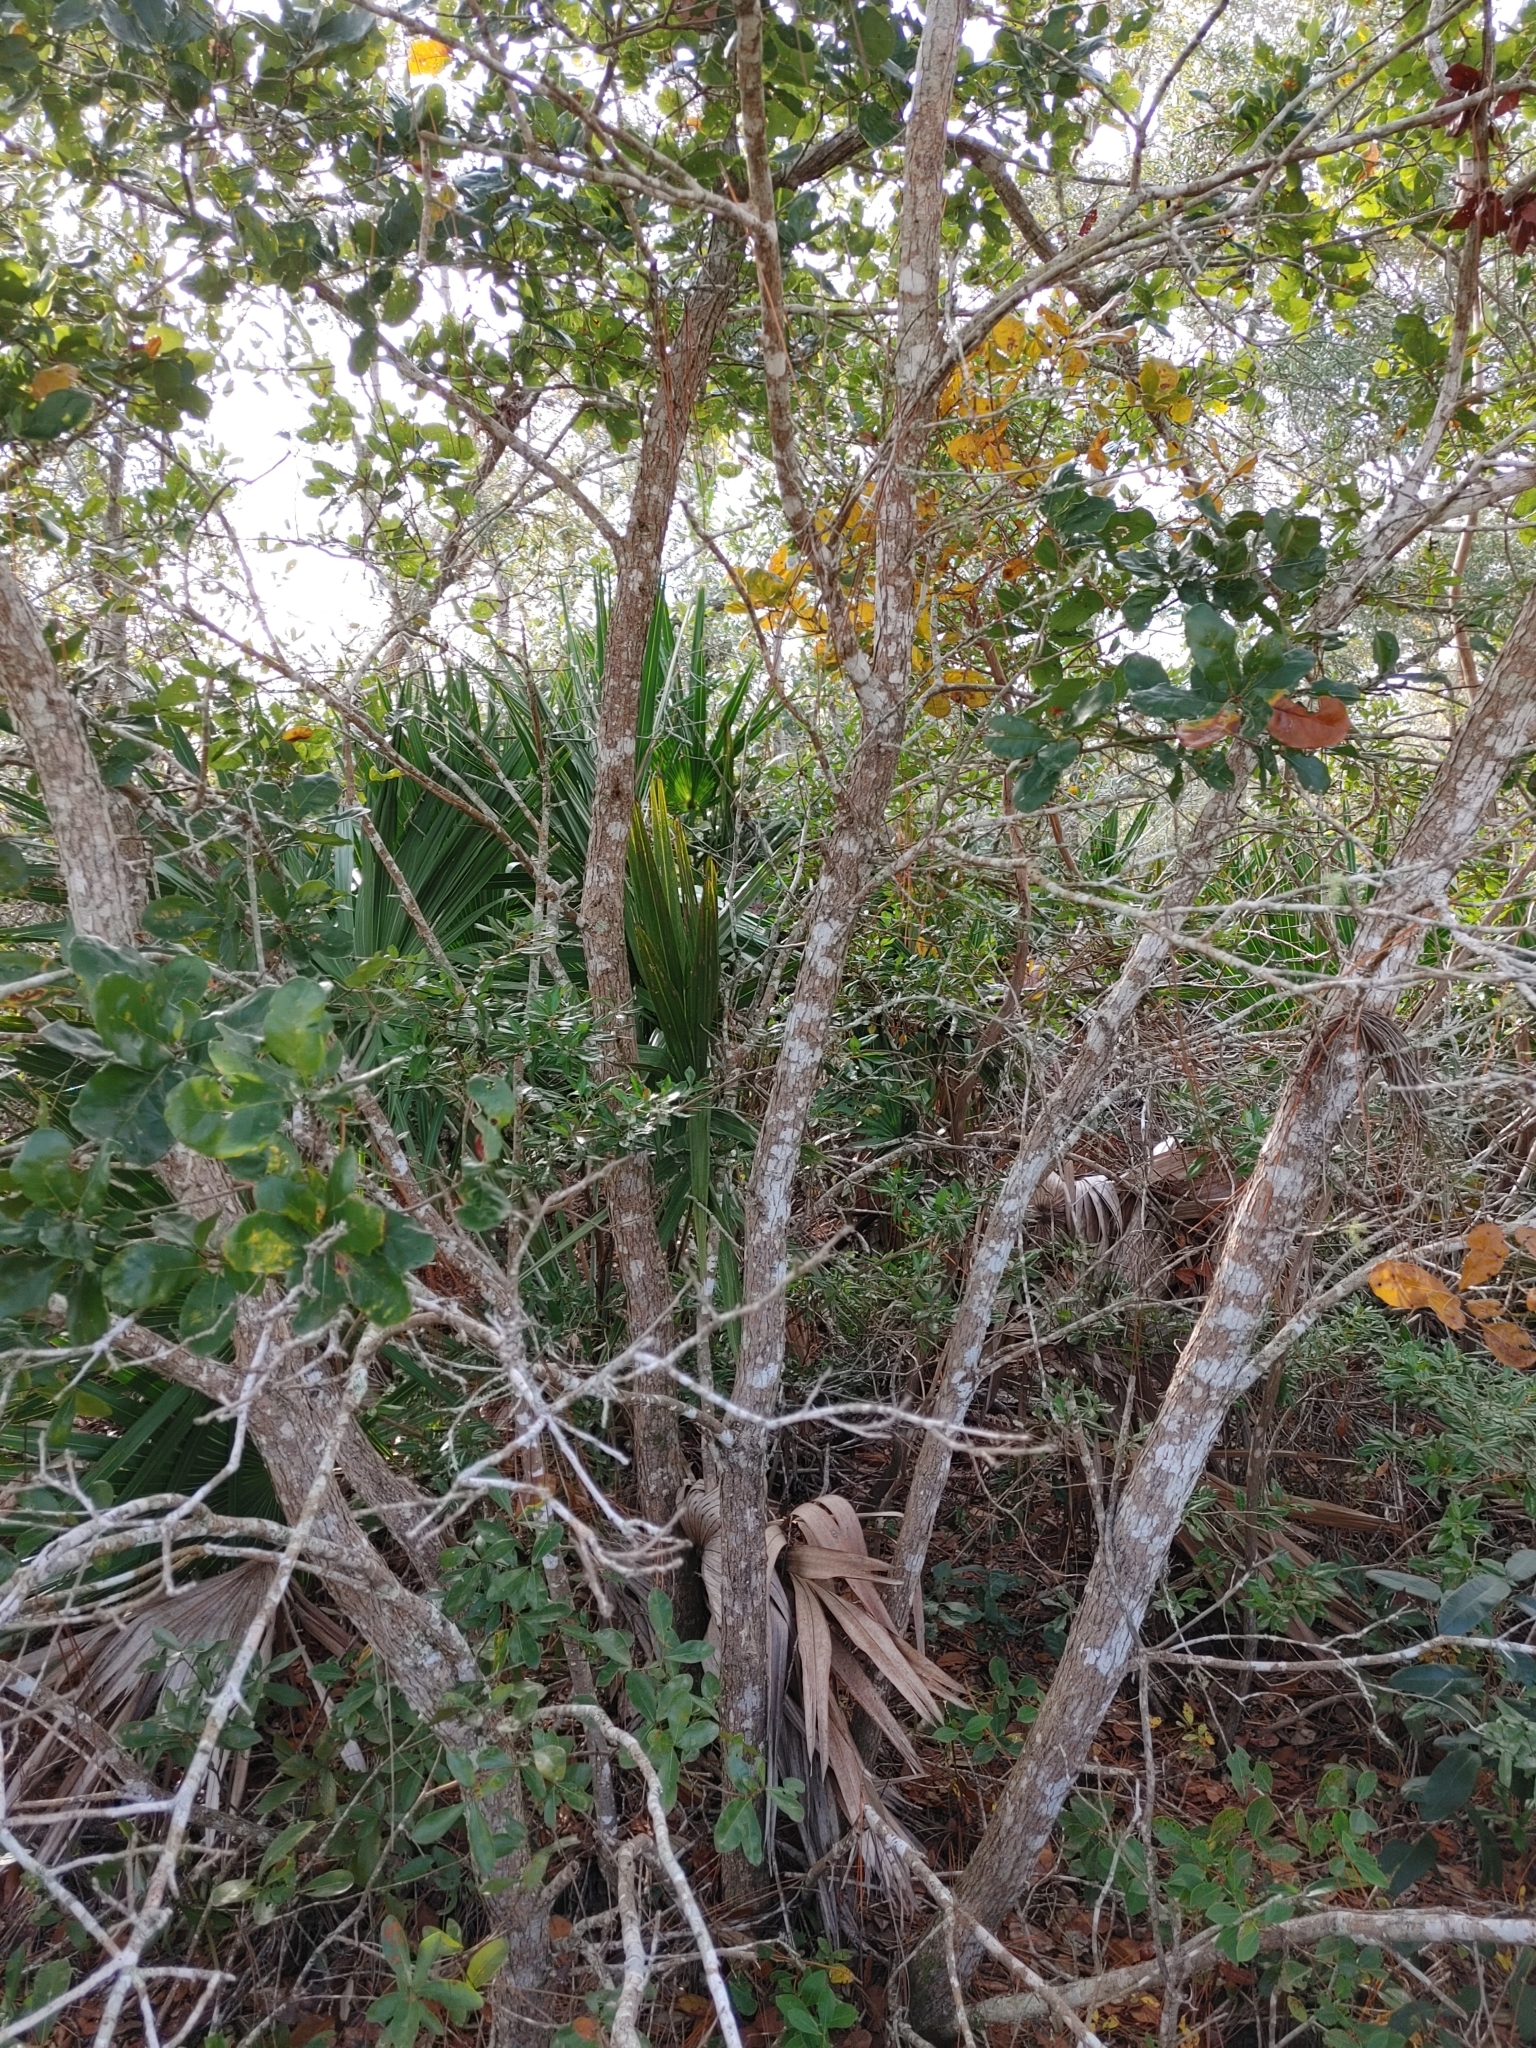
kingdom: Plantae
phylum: Tracheophyta
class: Magnoliopsida
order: Fagales
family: Fagaceae
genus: Quercus
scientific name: Quercus chapmanii
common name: Chapman oak
